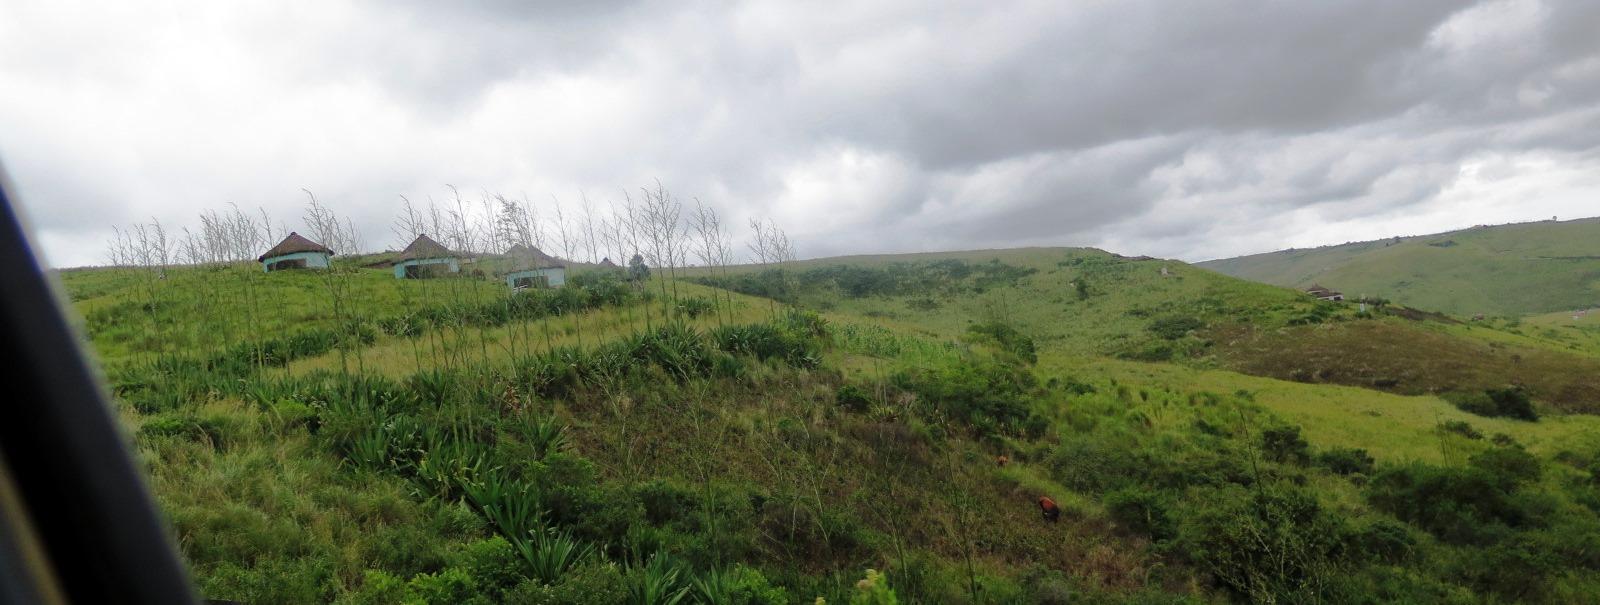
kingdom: Plantae
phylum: Tracheophyta
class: Liliopsida
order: Asparagales
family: Asparagaceae
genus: Furcraea
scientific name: Furcraea foetida
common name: Mauritius hemp
